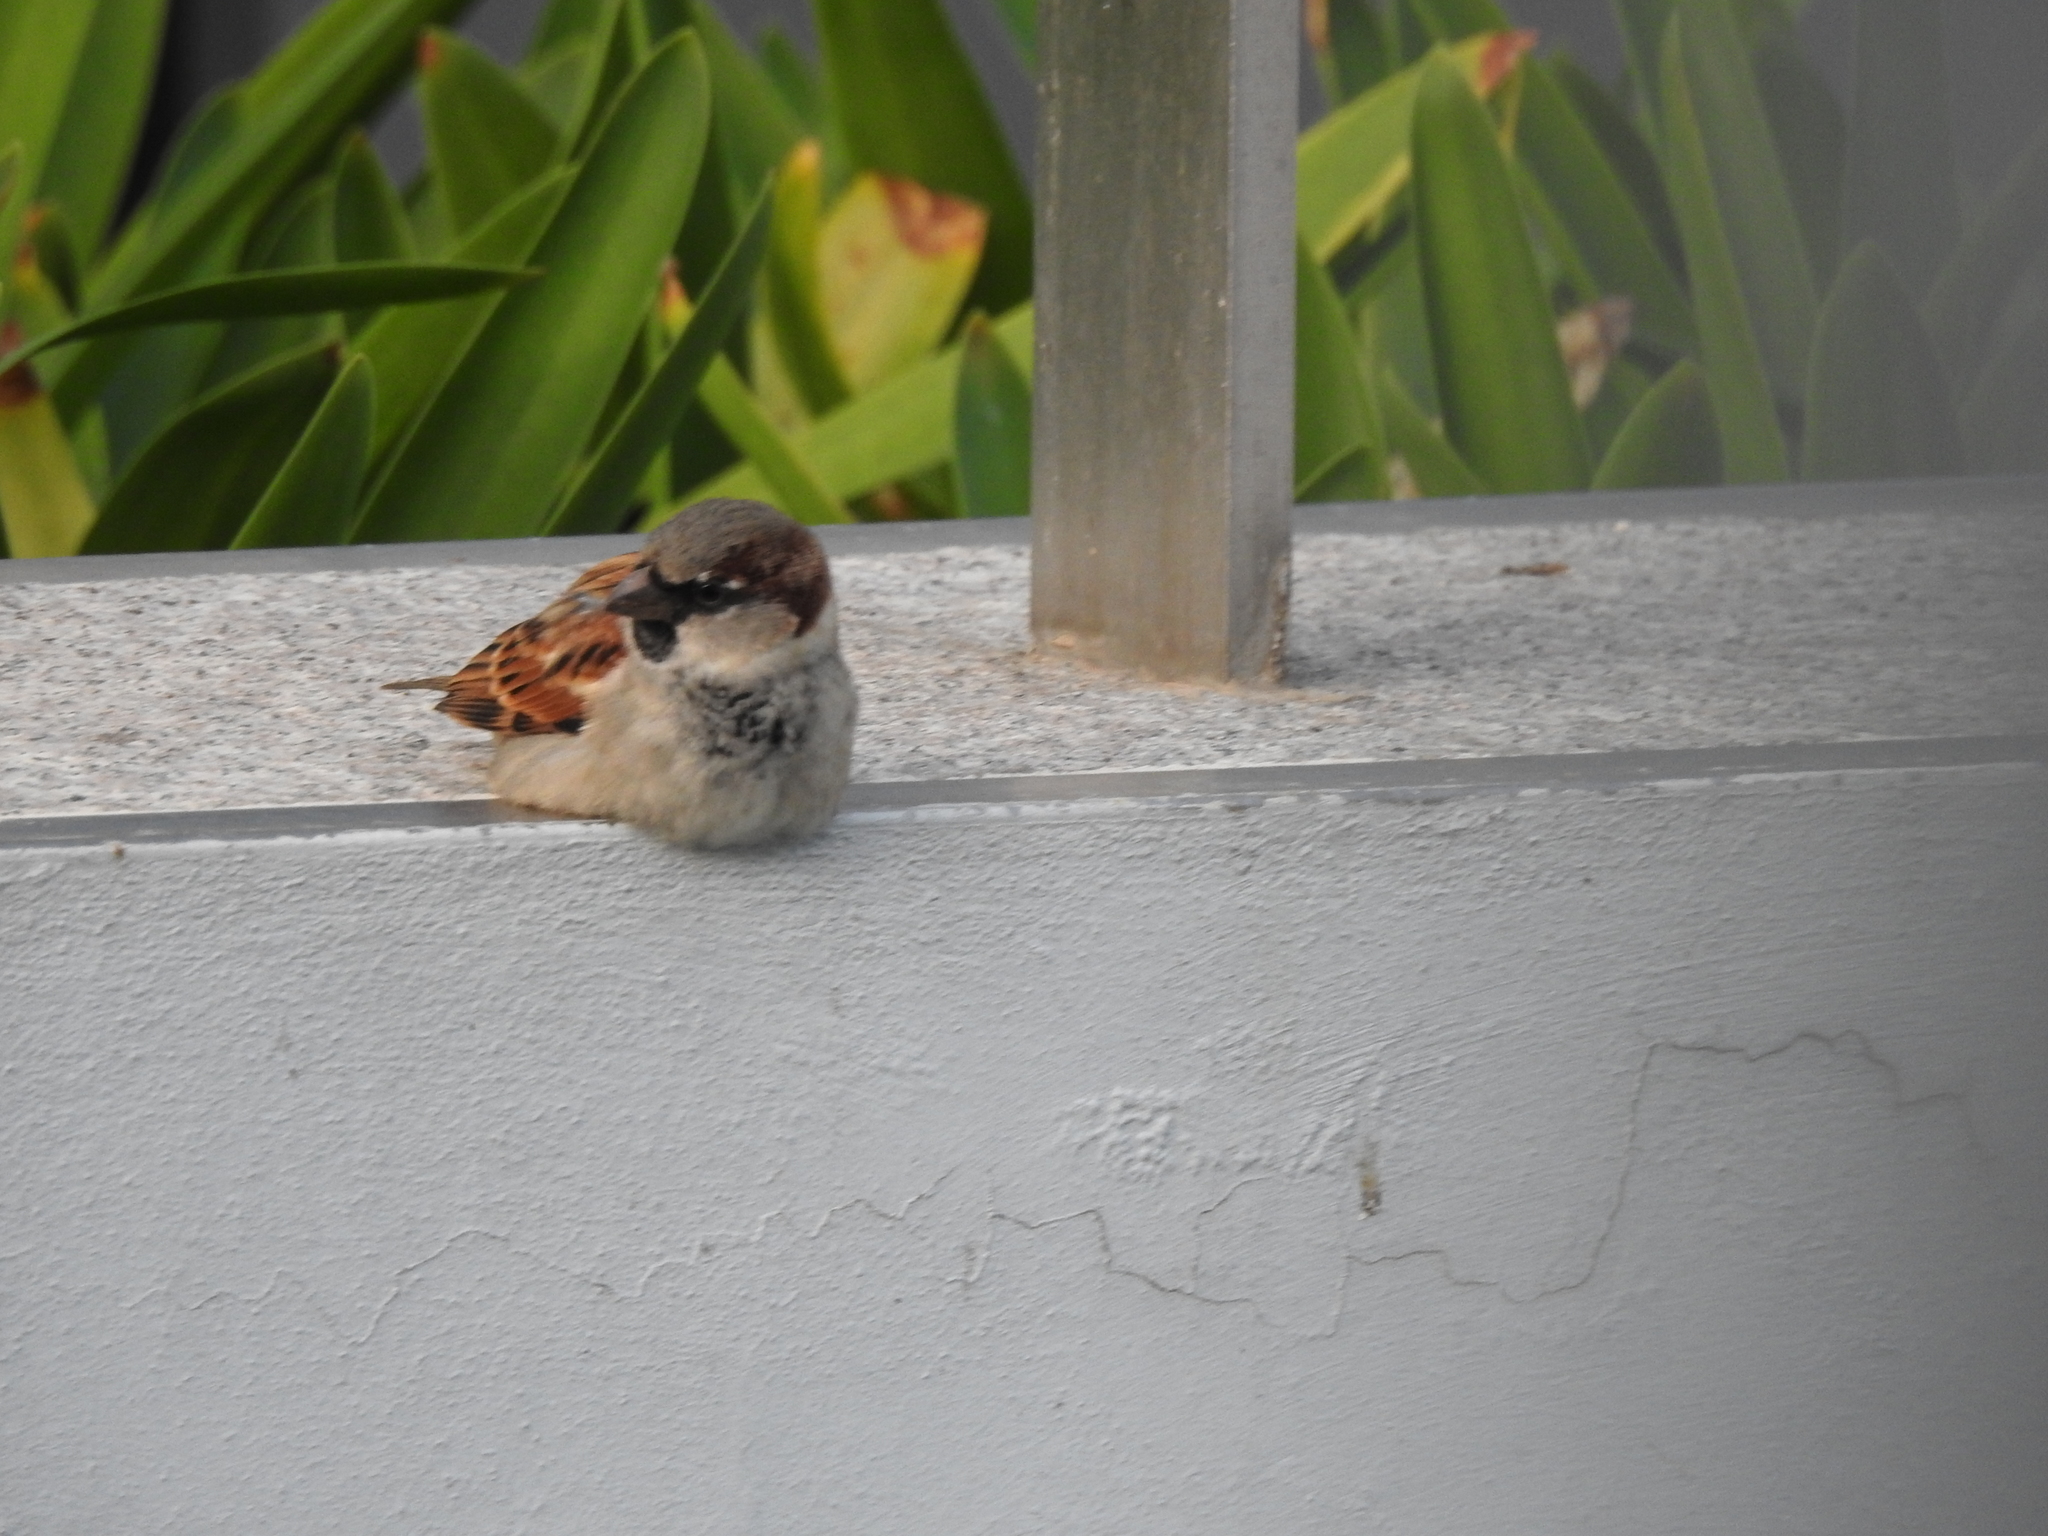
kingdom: Animalia
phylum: Chordata
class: Aves
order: Passeriformes
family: Passeridae
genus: Passer
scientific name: Passer domesticus
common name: House sparrow
